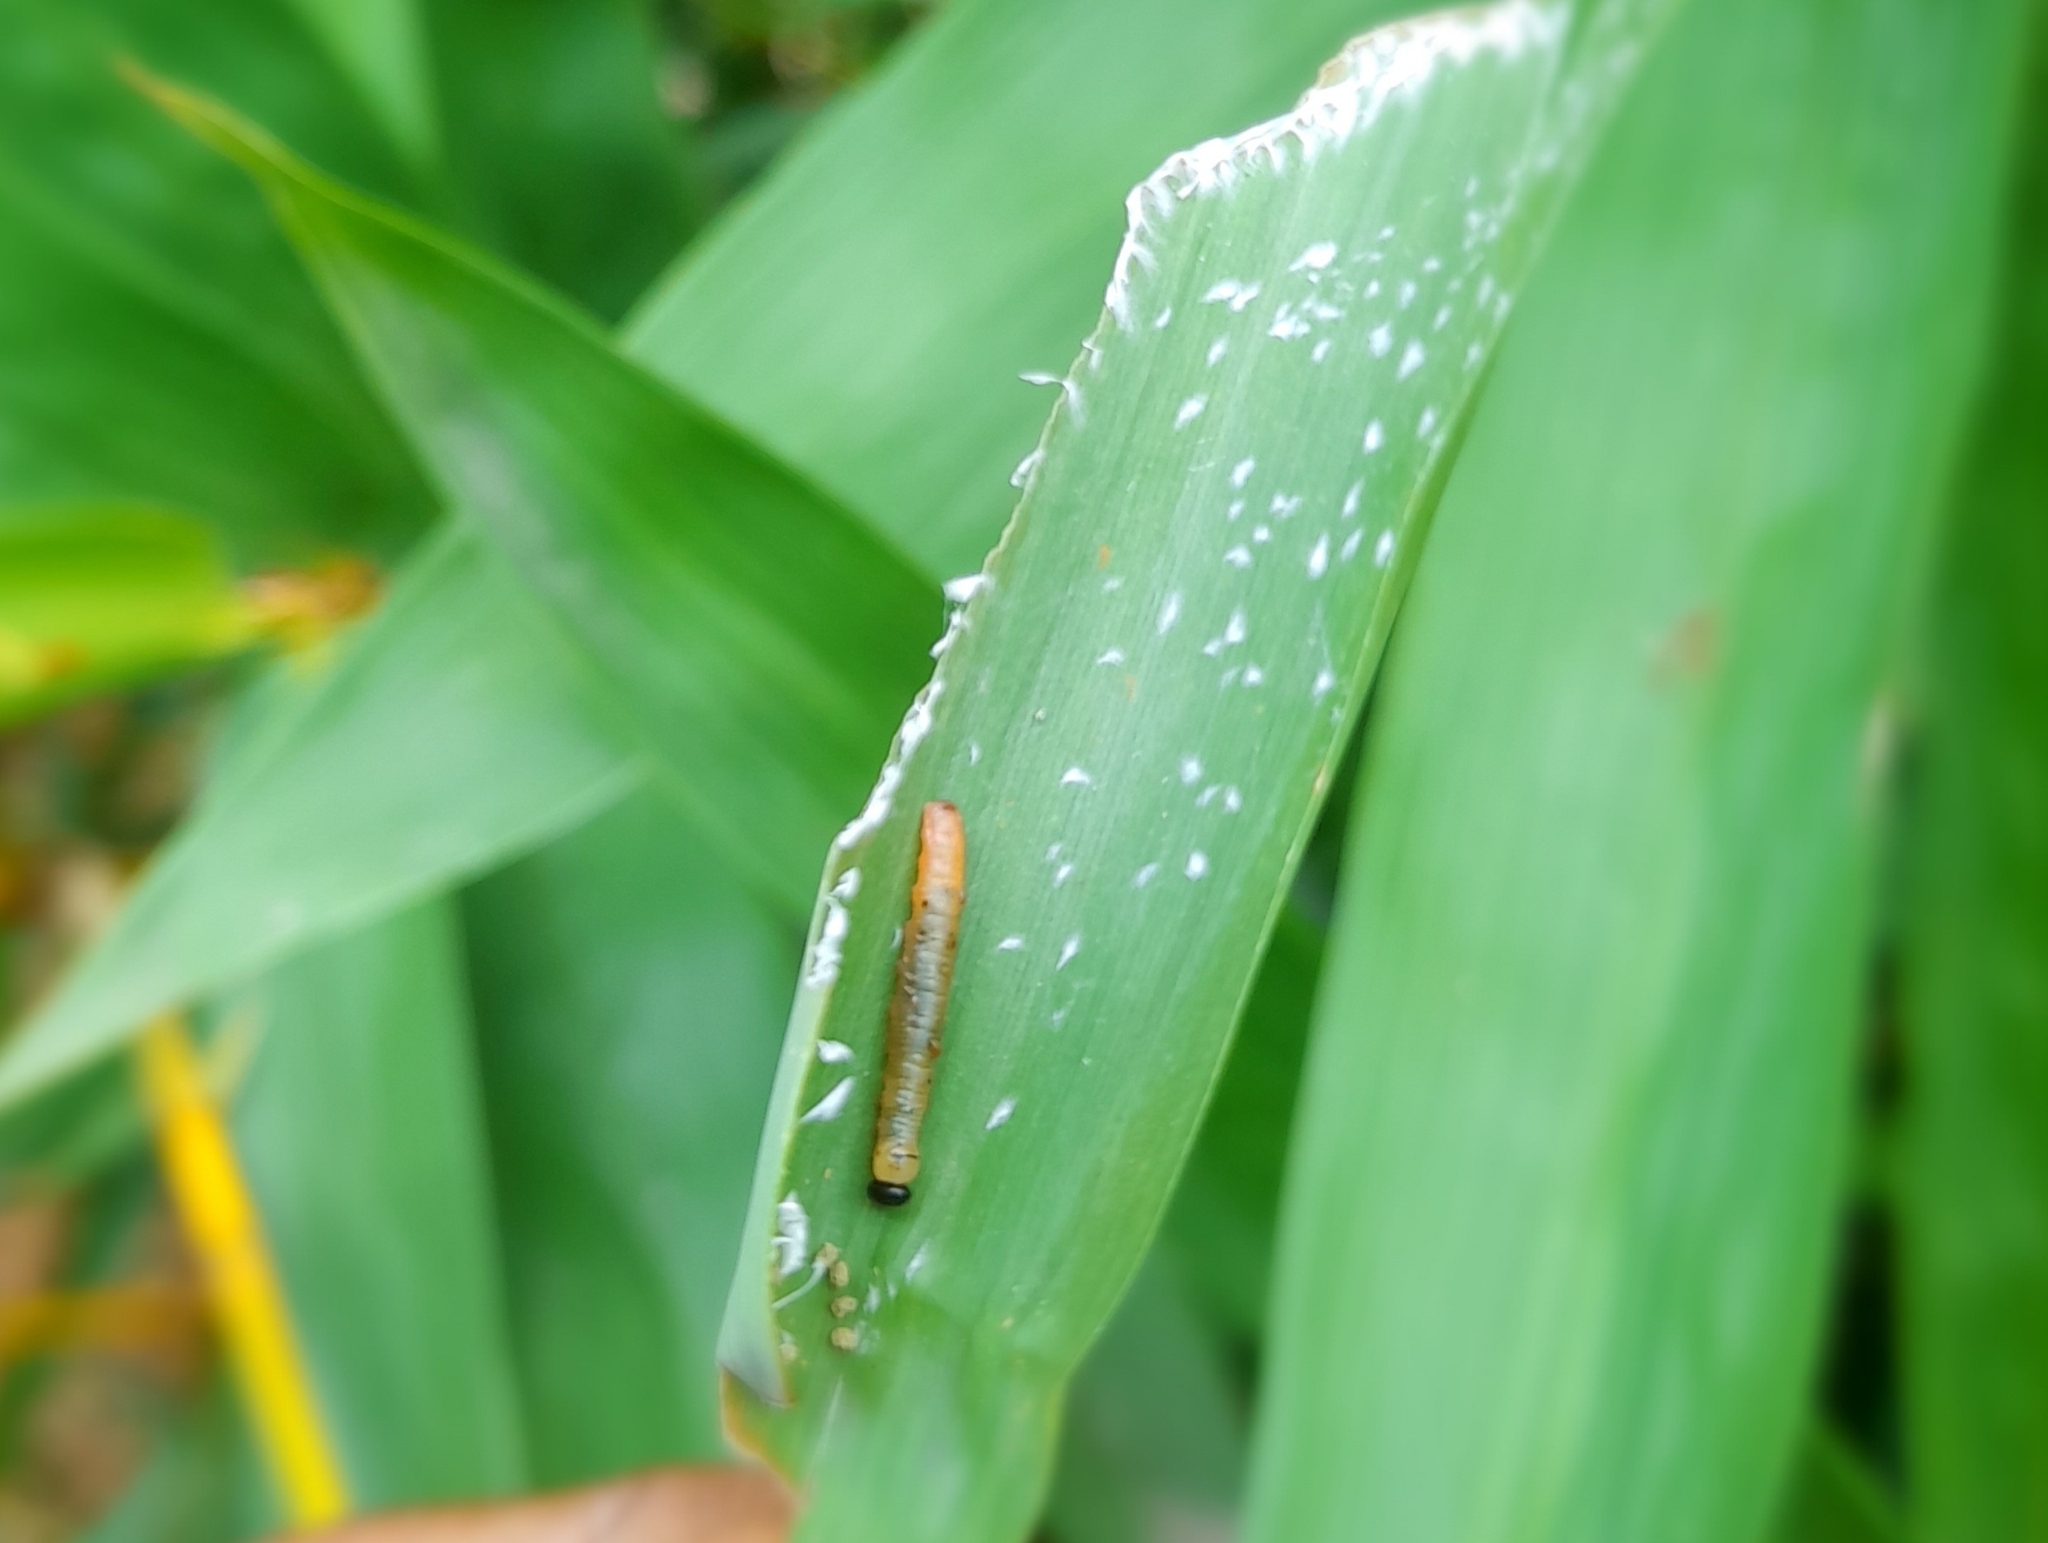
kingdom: Animalia
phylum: Arthropoda
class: Insecta
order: Lepidoptera
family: Hesperiidae
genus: Matapa
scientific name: Matapa aria
